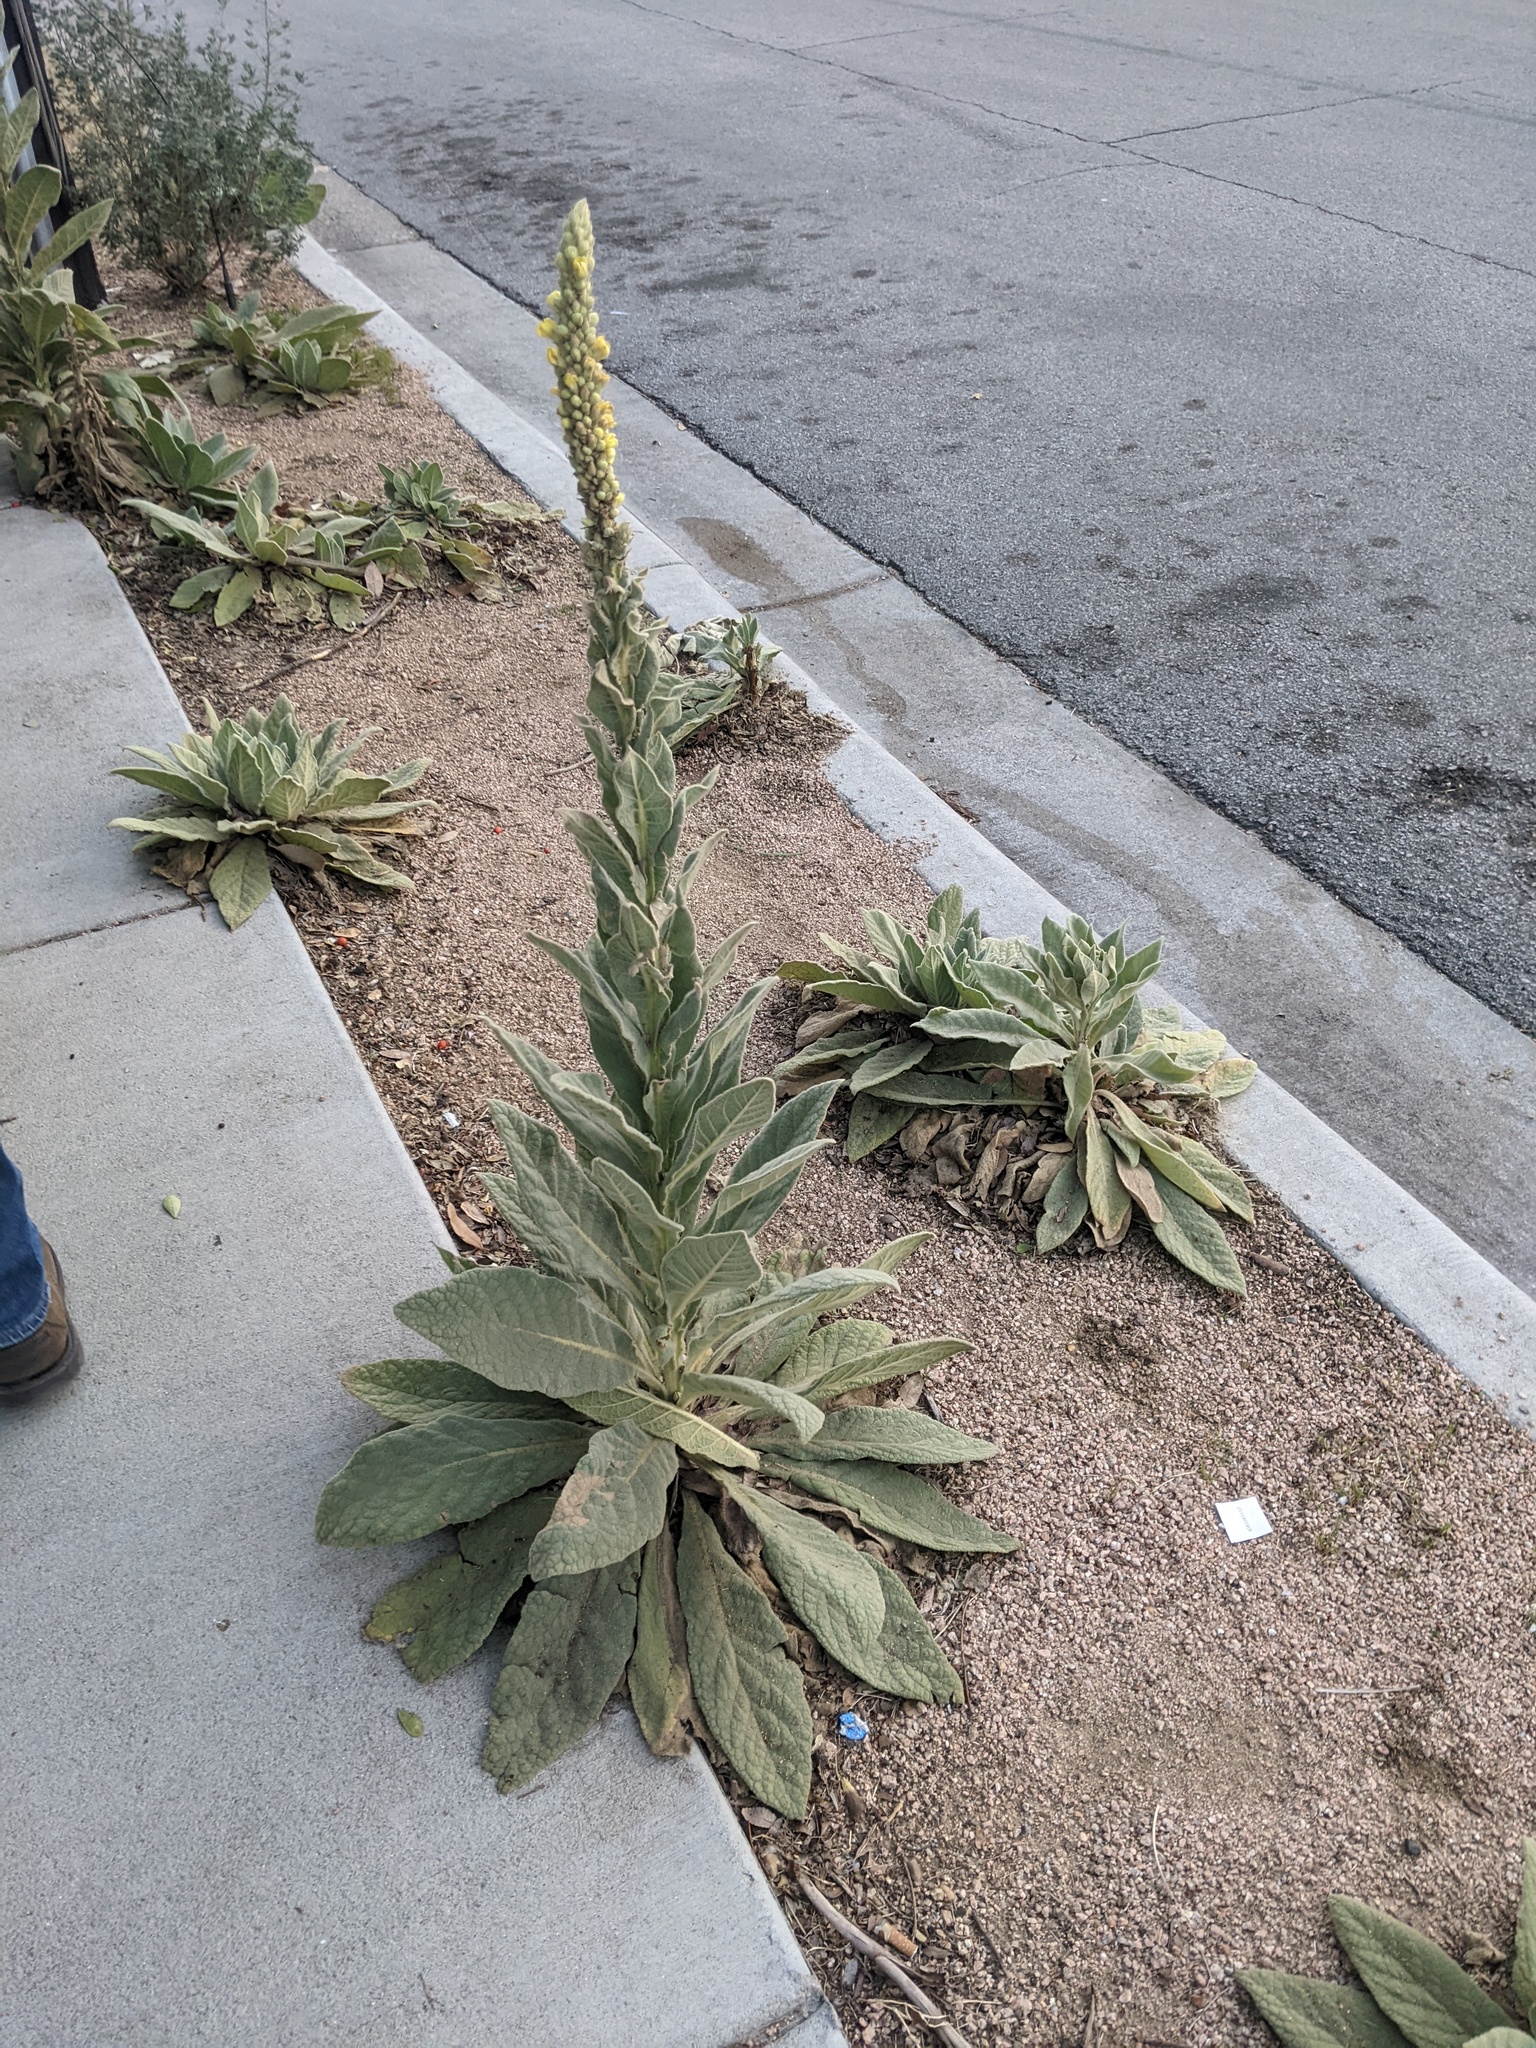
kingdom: Plantae
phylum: Tracheophyta
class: Magnoliopsida
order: Lamiales
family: Scrophulariaceae
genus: Verbascum
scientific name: Verbascum thapsus
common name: Common mullein
